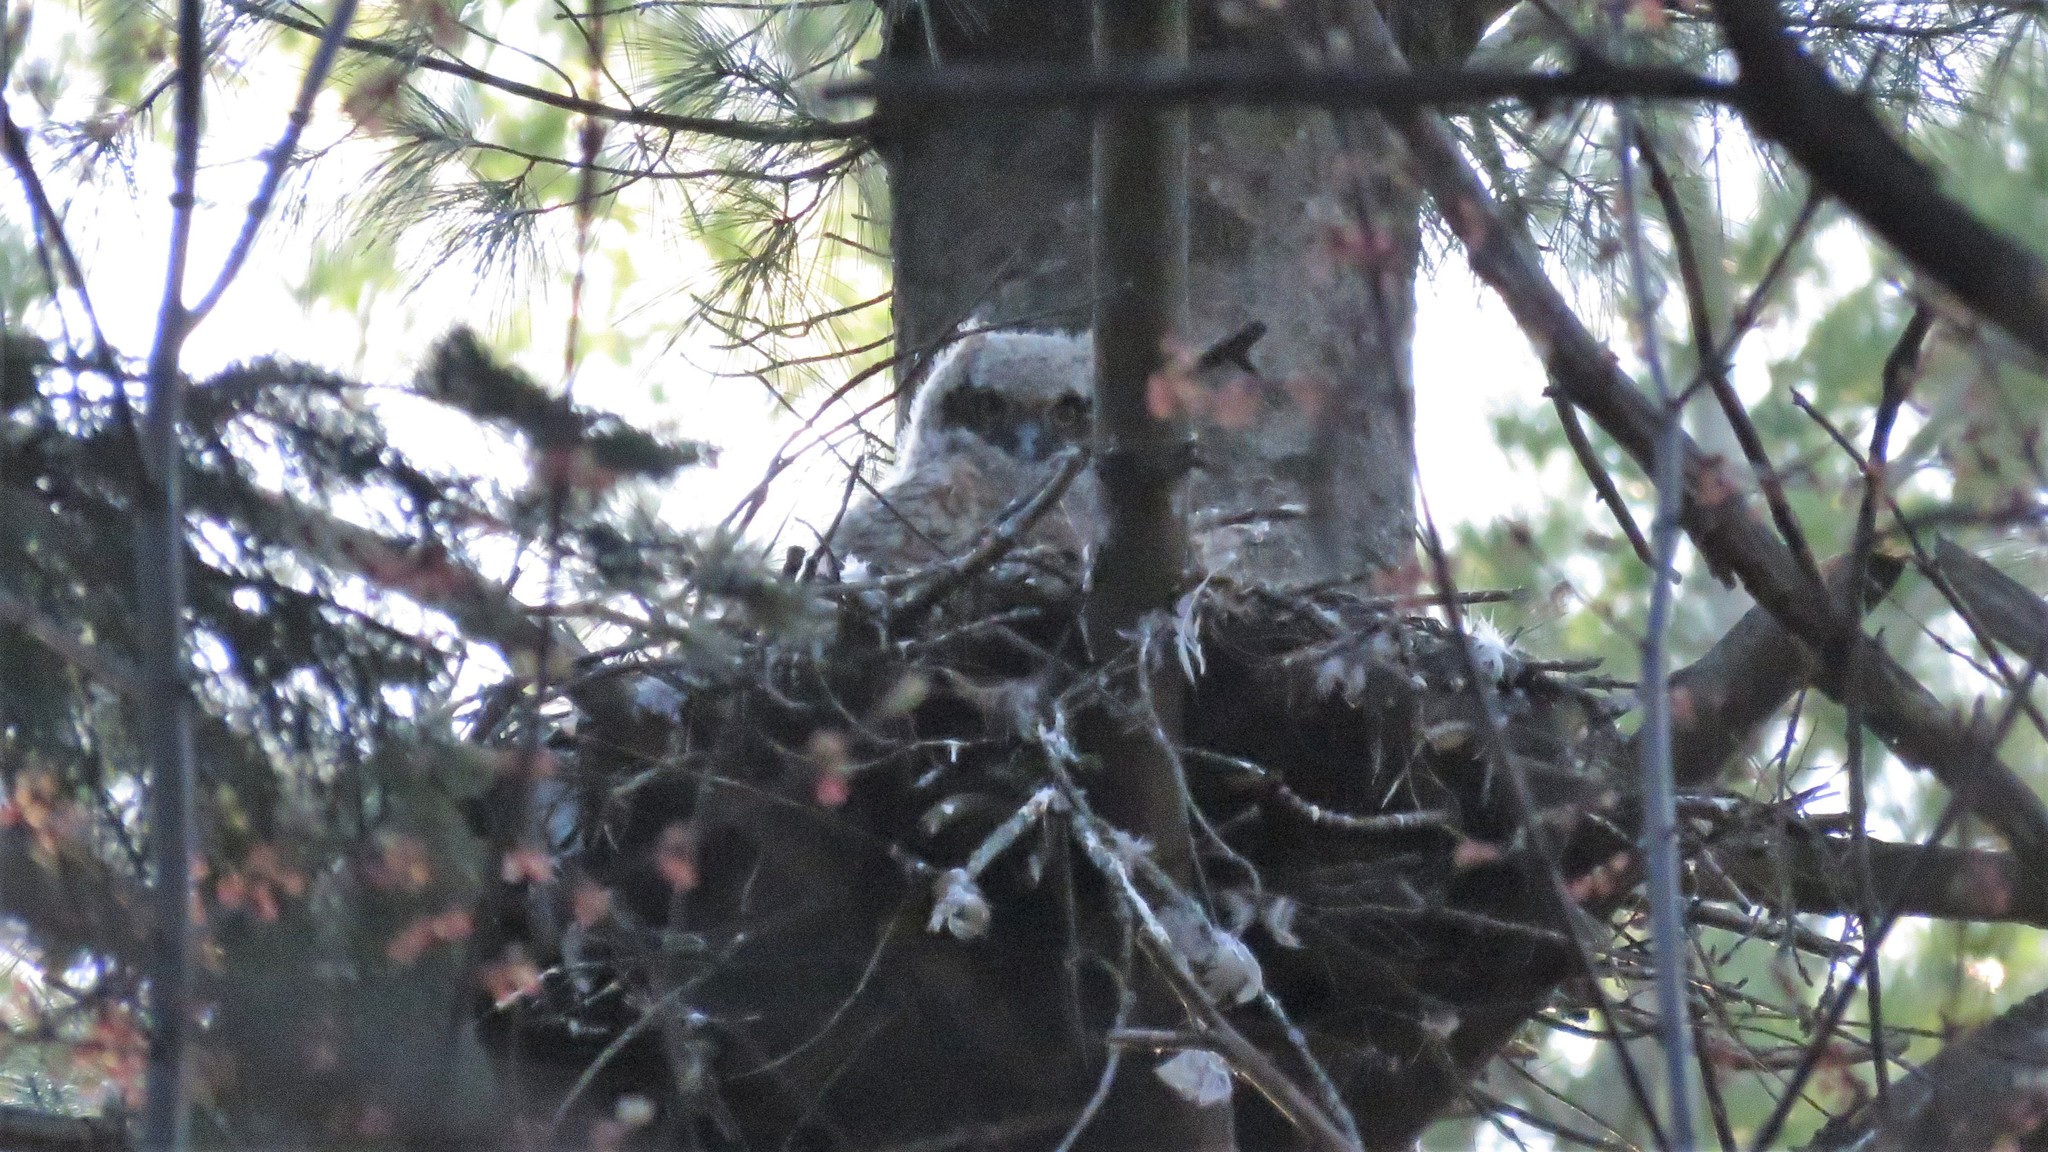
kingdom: Animalia
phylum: Chordata
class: Aves
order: Strigiformes
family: Strigidae
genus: Bubo
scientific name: Bubo virginianus
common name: Great horned owl
